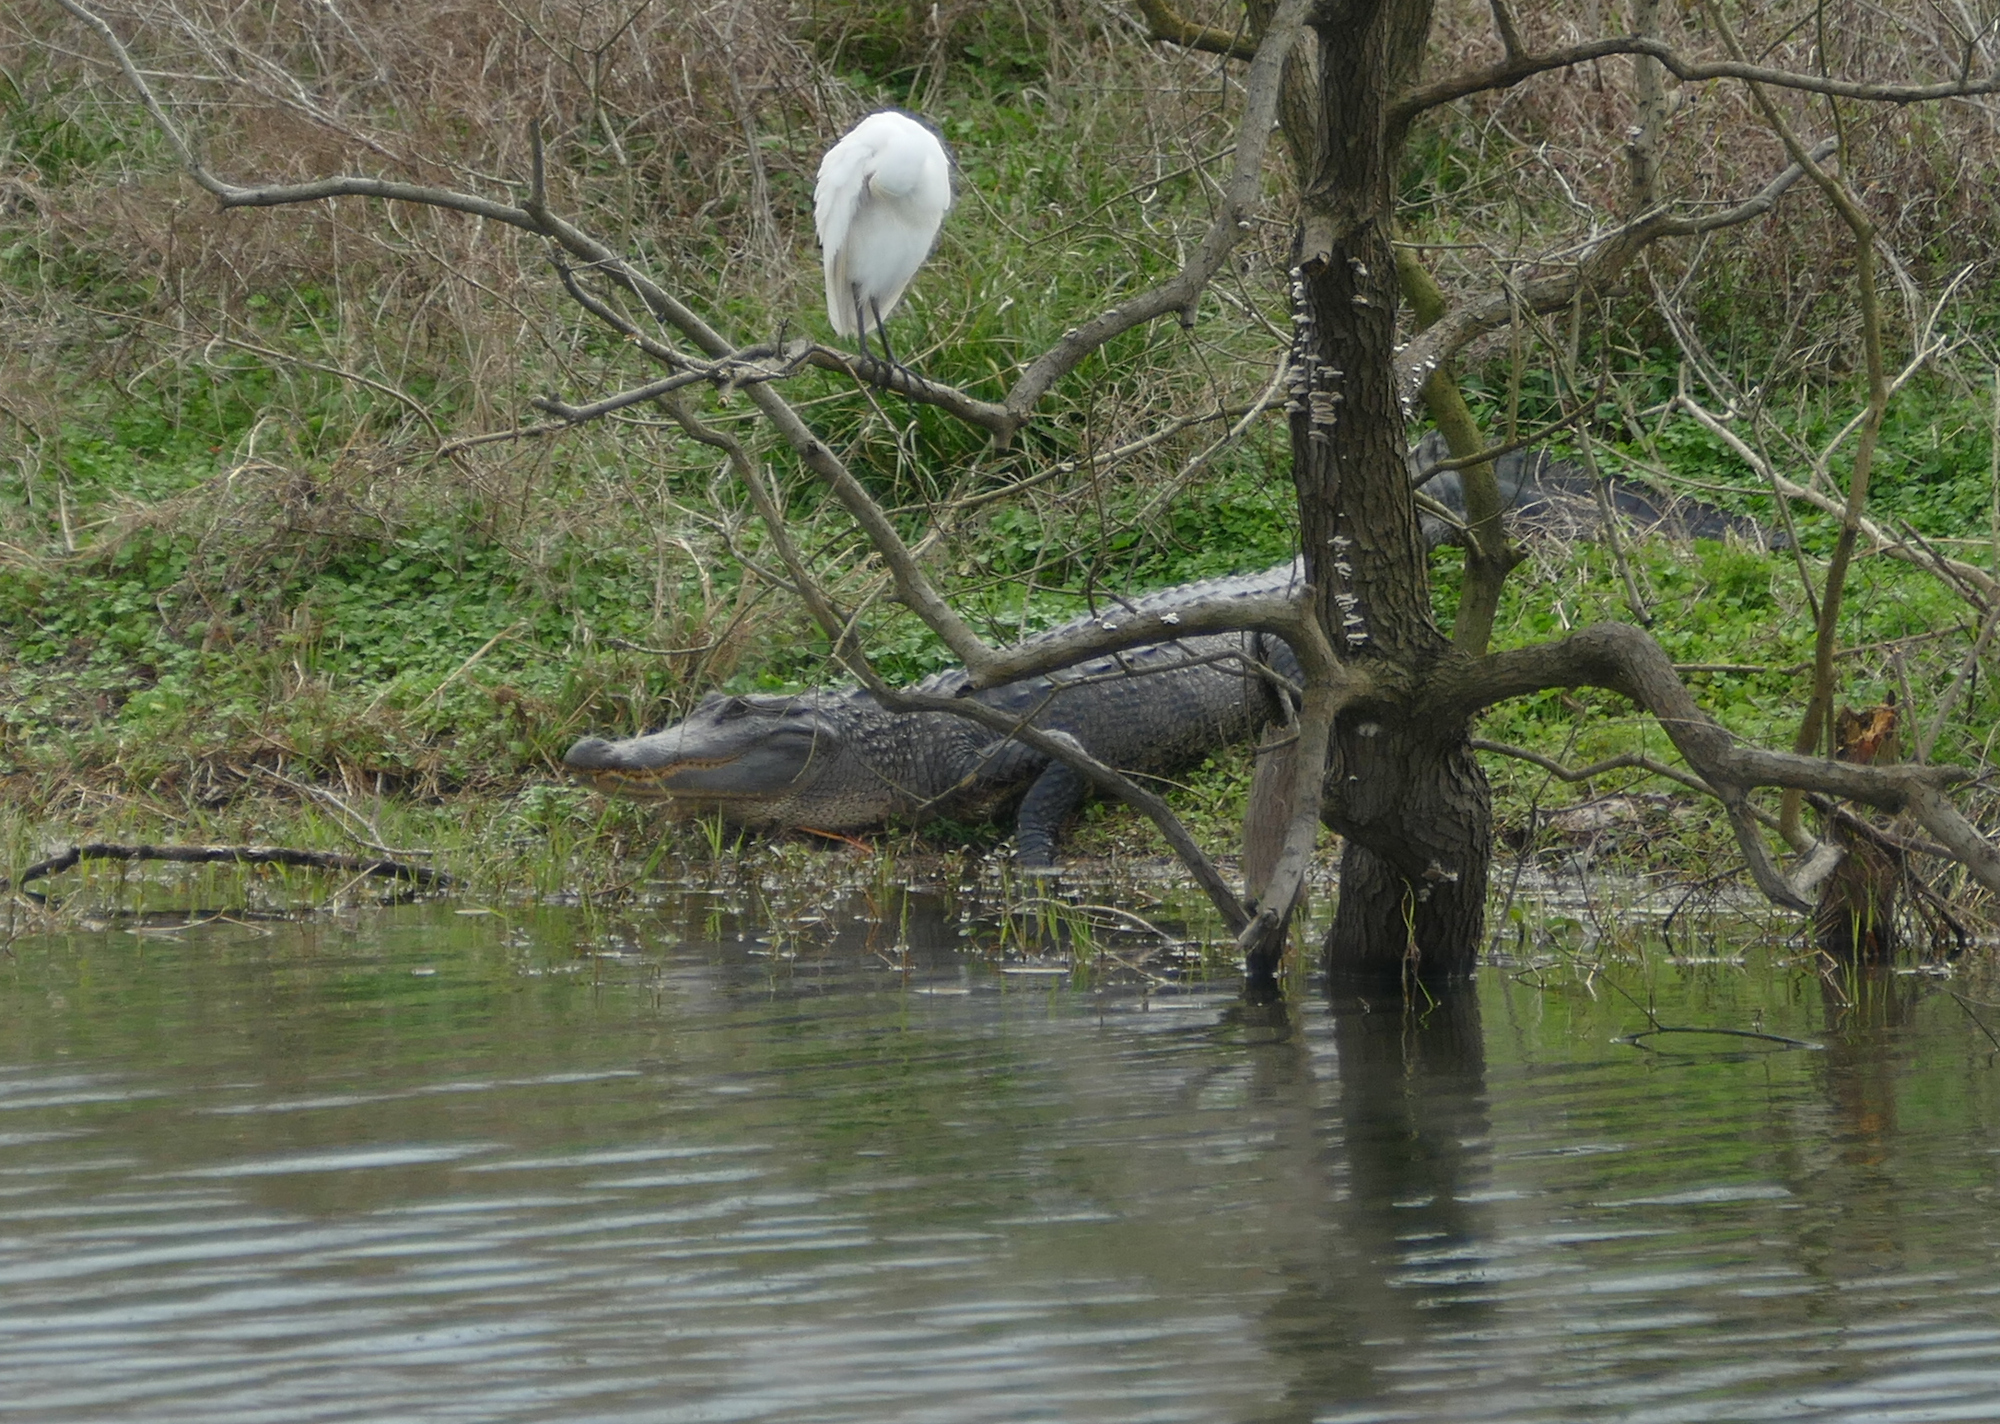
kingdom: Animalia
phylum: Chordata
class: Crocodylia
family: Alligatoridae
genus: Alligator
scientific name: Alligator mississippiensis
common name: American alligator
